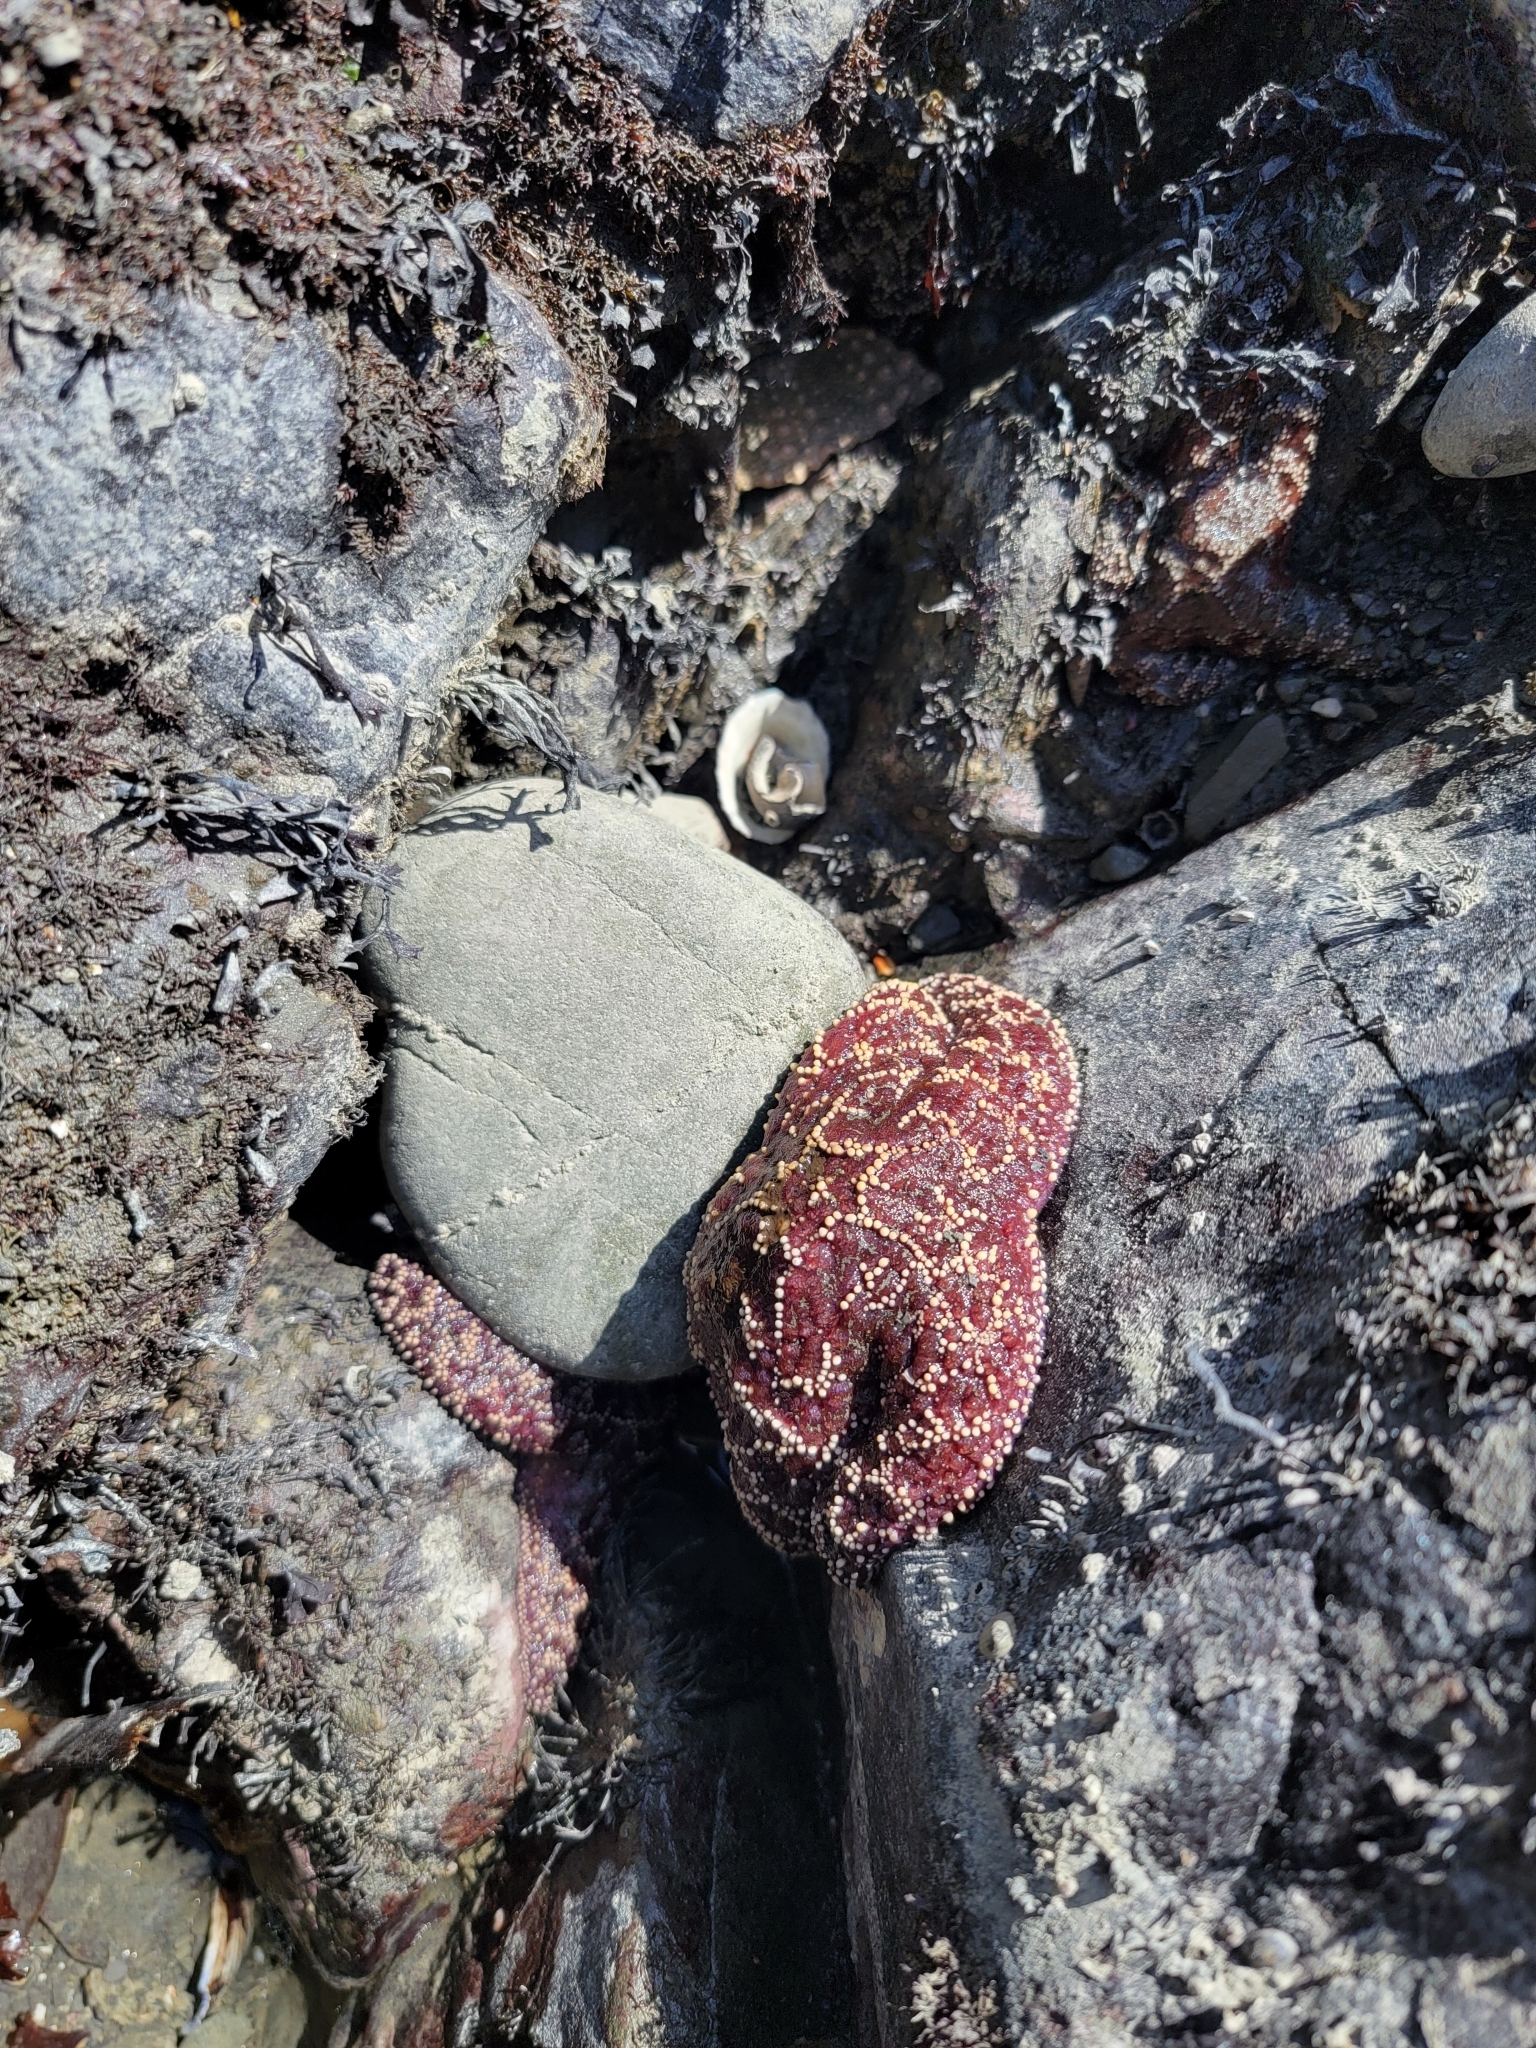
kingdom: Animalia
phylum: Echinodermata
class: Asteroidea
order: Forcipulatida
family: Asteriidae
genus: Pisaster
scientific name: Pisaster ochraceus
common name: Ochre stars
